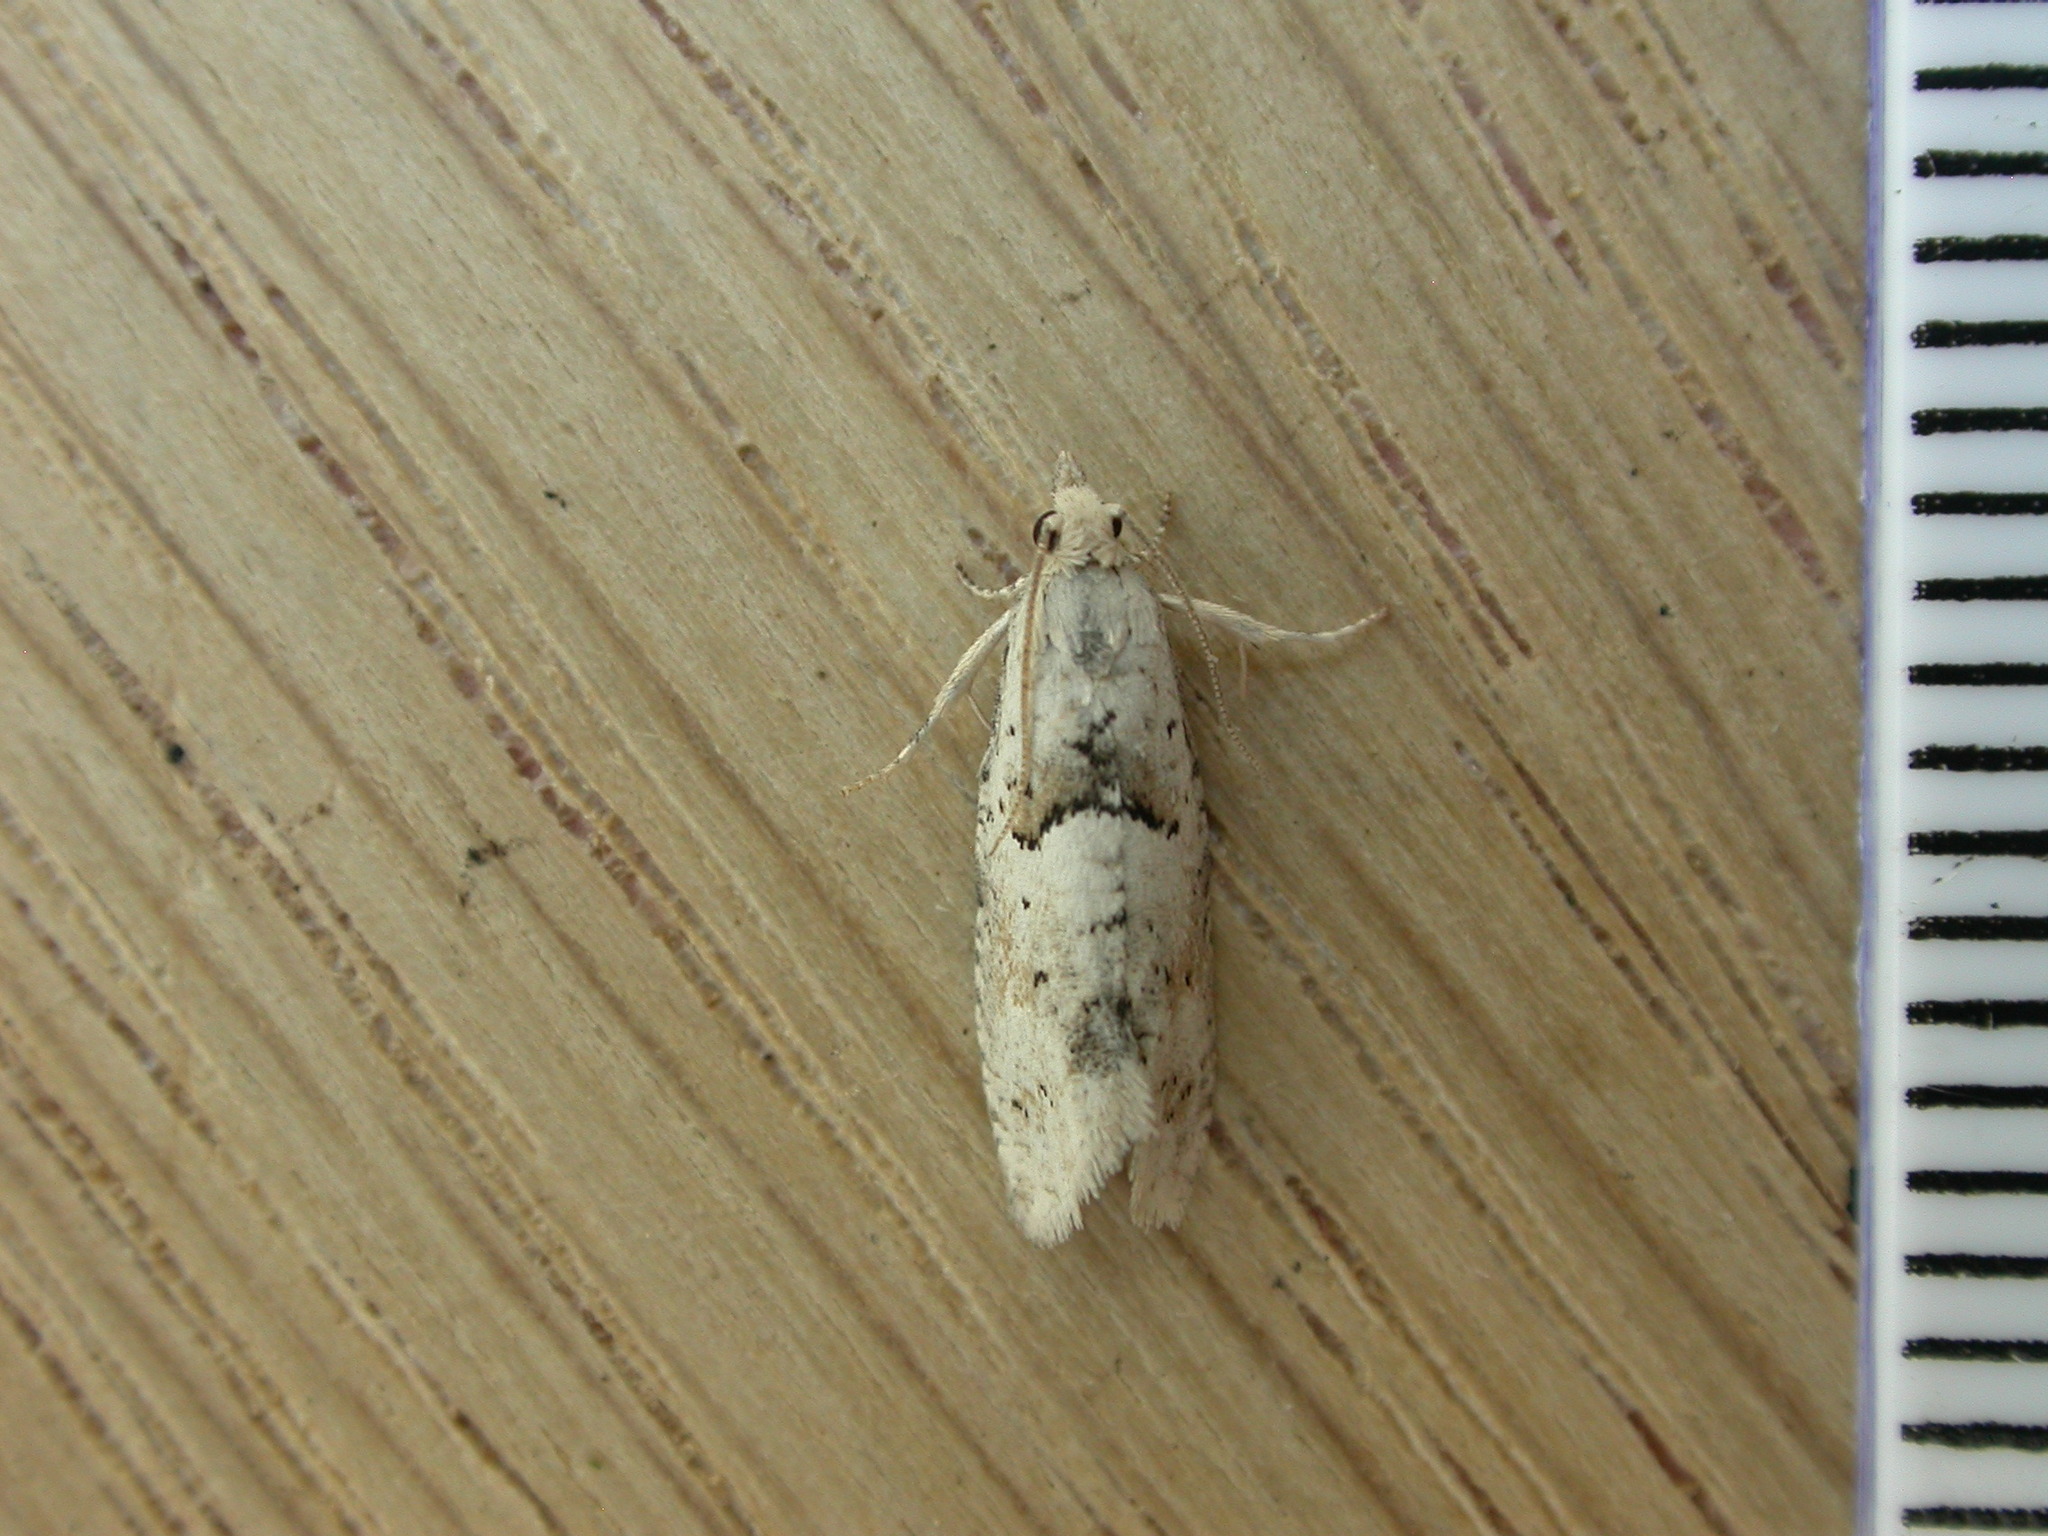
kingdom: Animalia
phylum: Arthropoda
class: Insecta
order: Lepidoptera
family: Tortricidae
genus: Epinotia
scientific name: Epinotia bilunana
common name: Crescent bell
